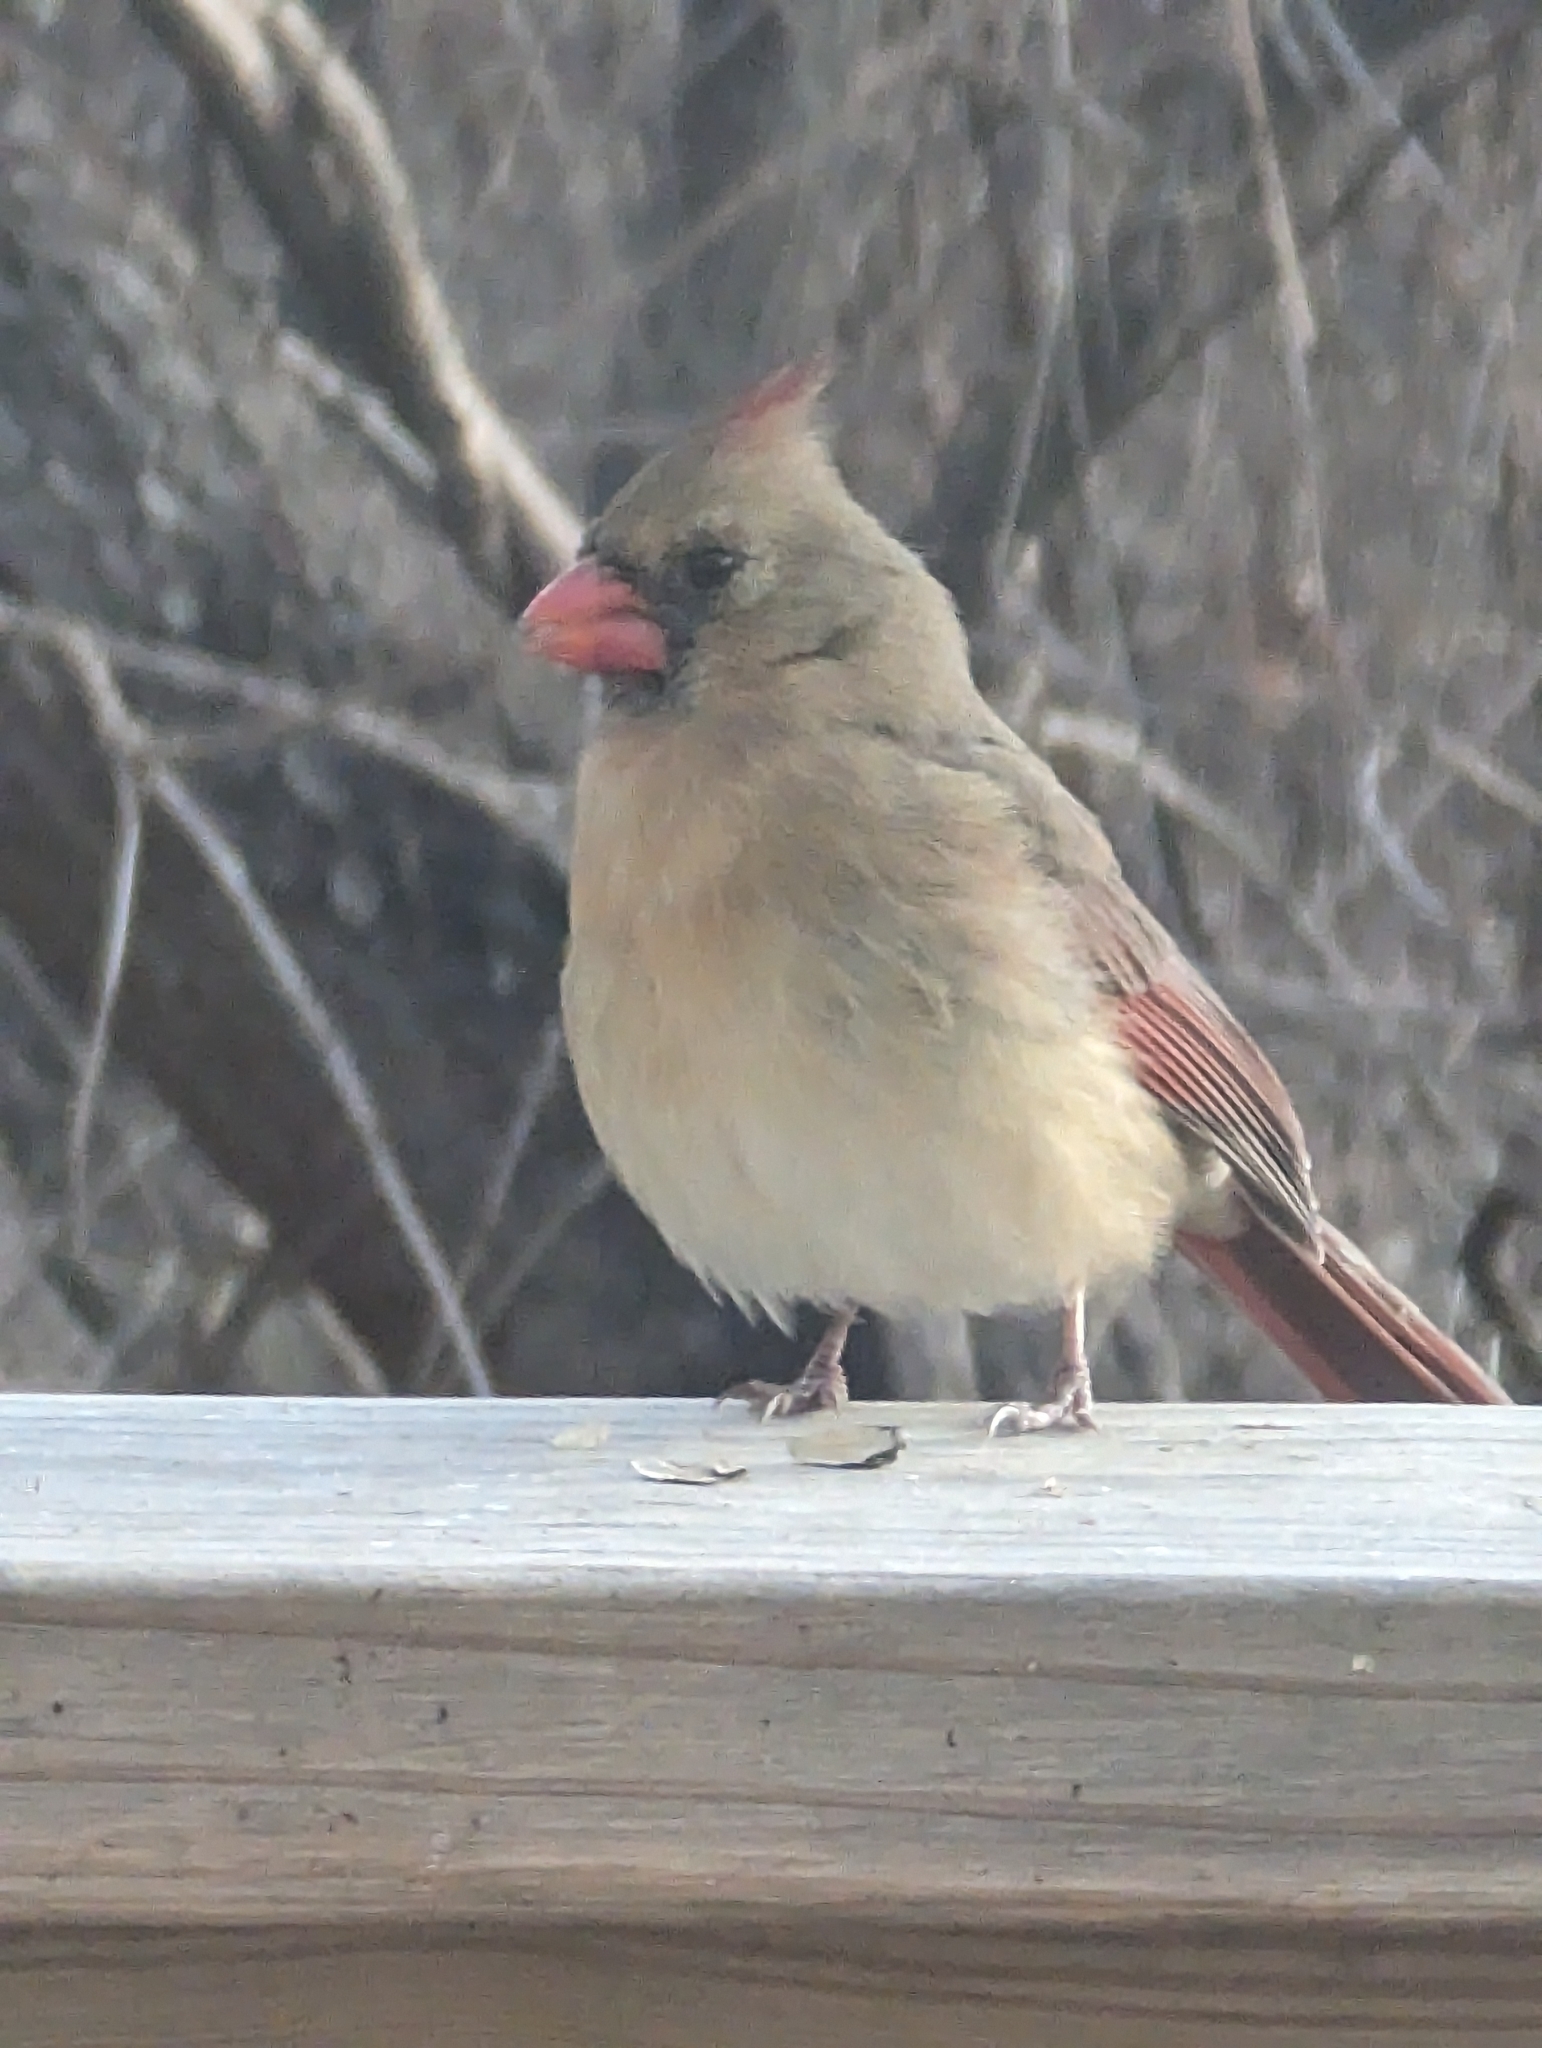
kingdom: Animalia
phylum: Chordata
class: Aves
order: Passeriformes
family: Cardinalidae
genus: Cardinalis
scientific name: Cardinalis cardinalis
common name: Northern cardinal
